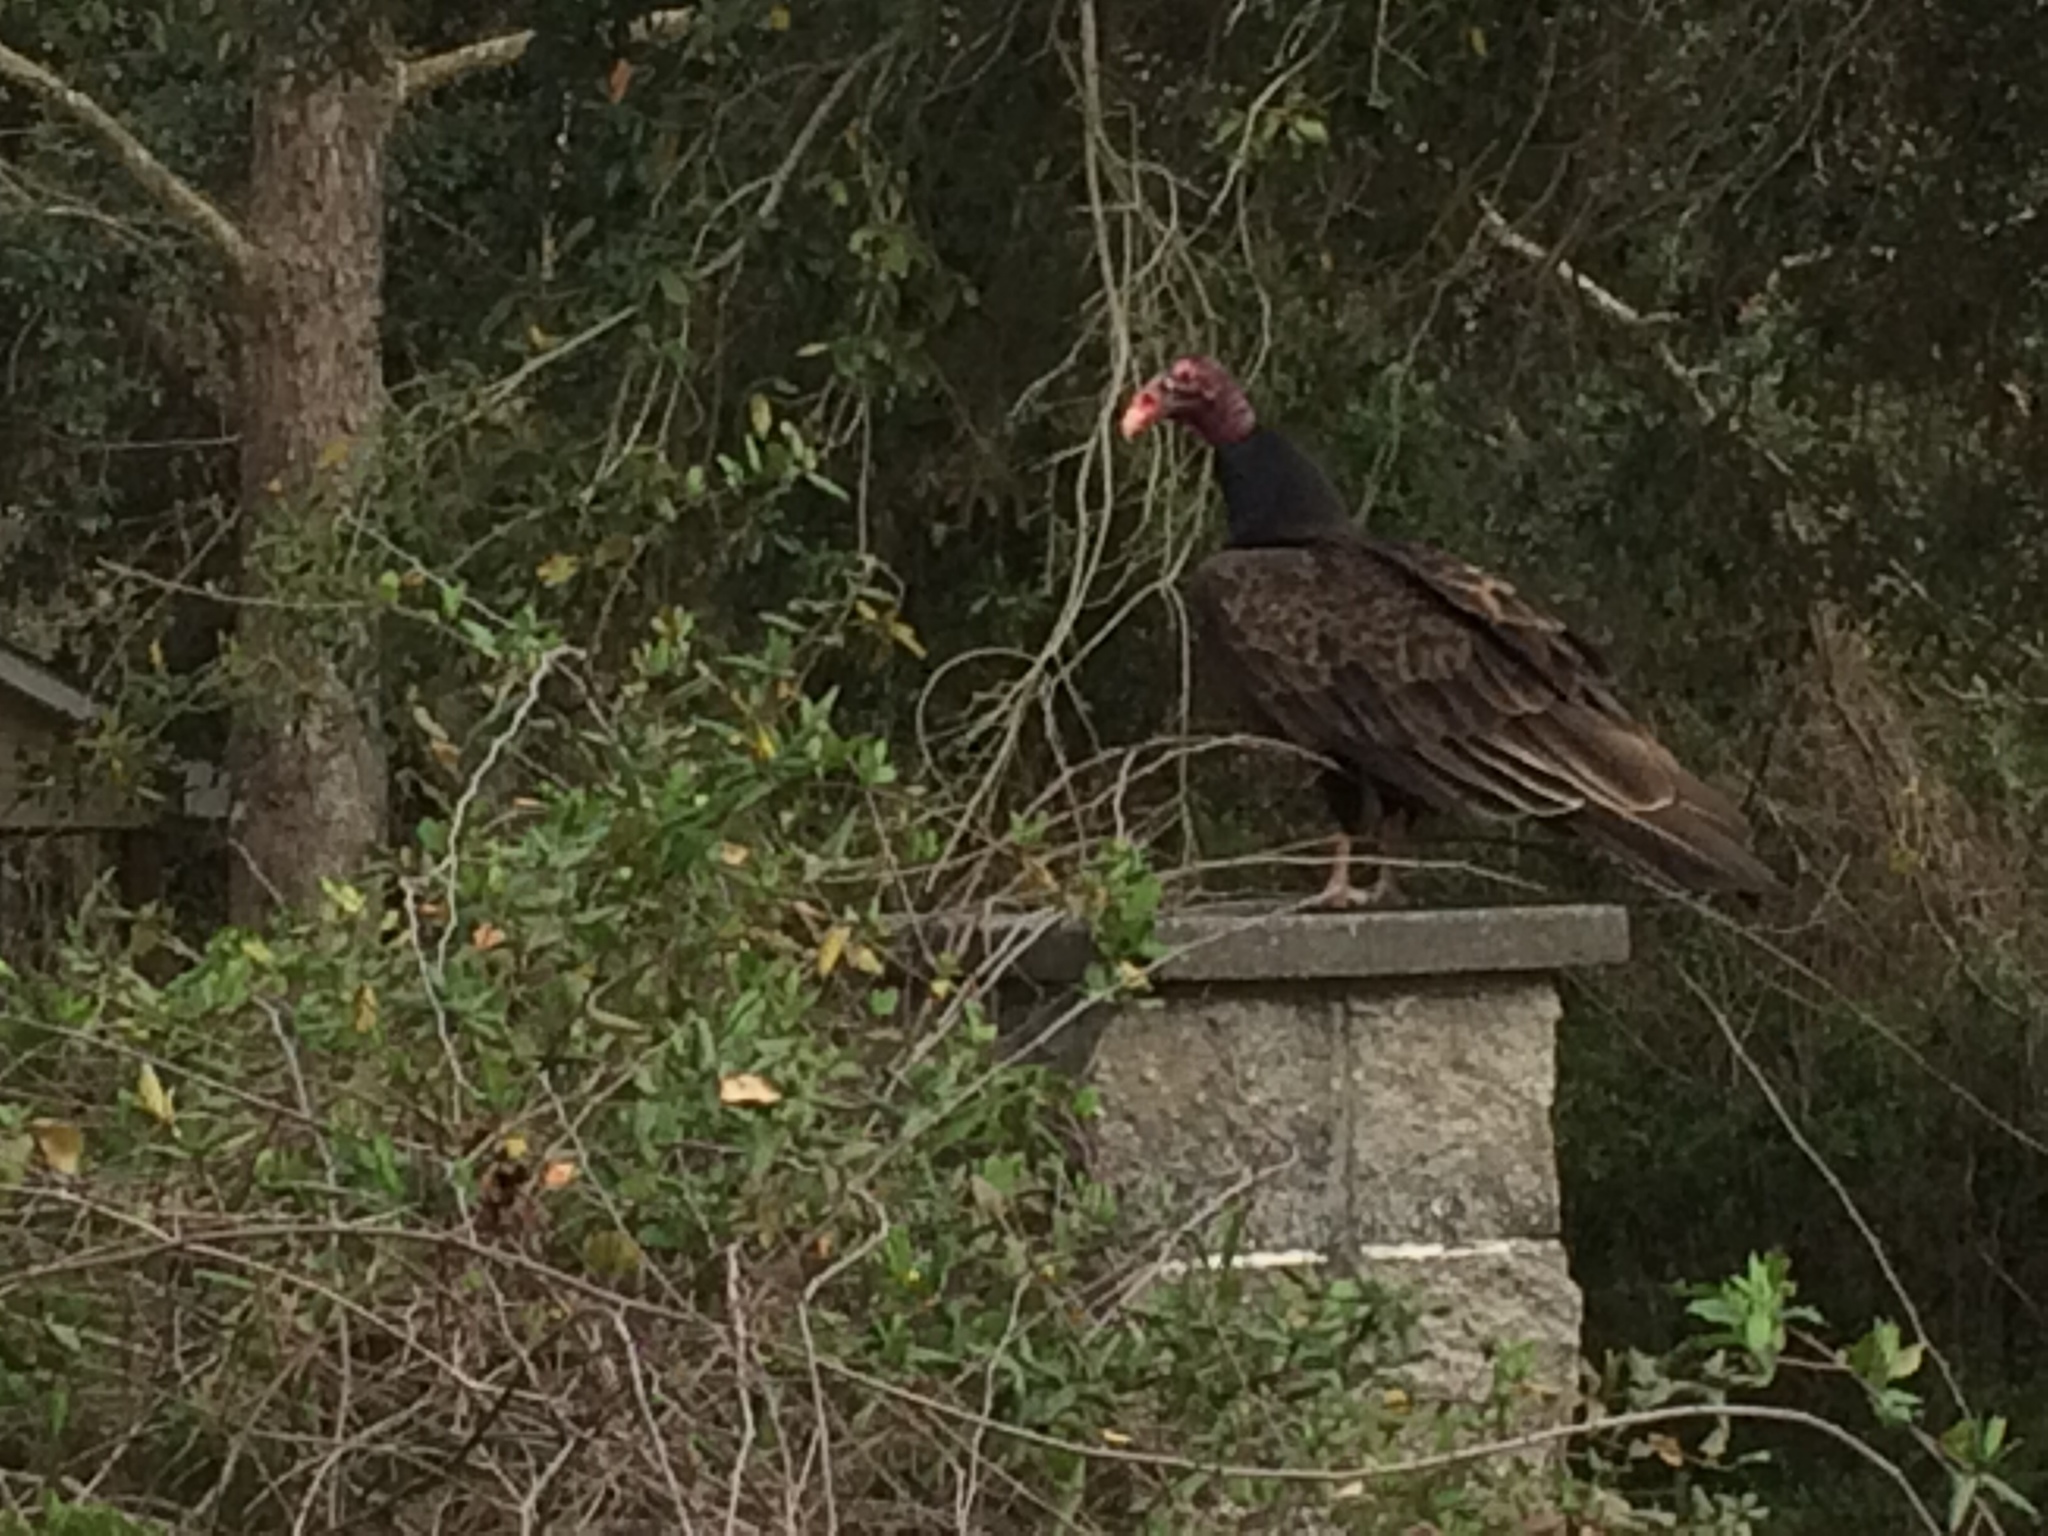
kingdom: Animalia
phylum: Chordata
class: Aves
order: Accipitriformes
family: Cathartidae
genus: Cathartes
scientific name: Cathartes aura
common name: Turkey vulture
